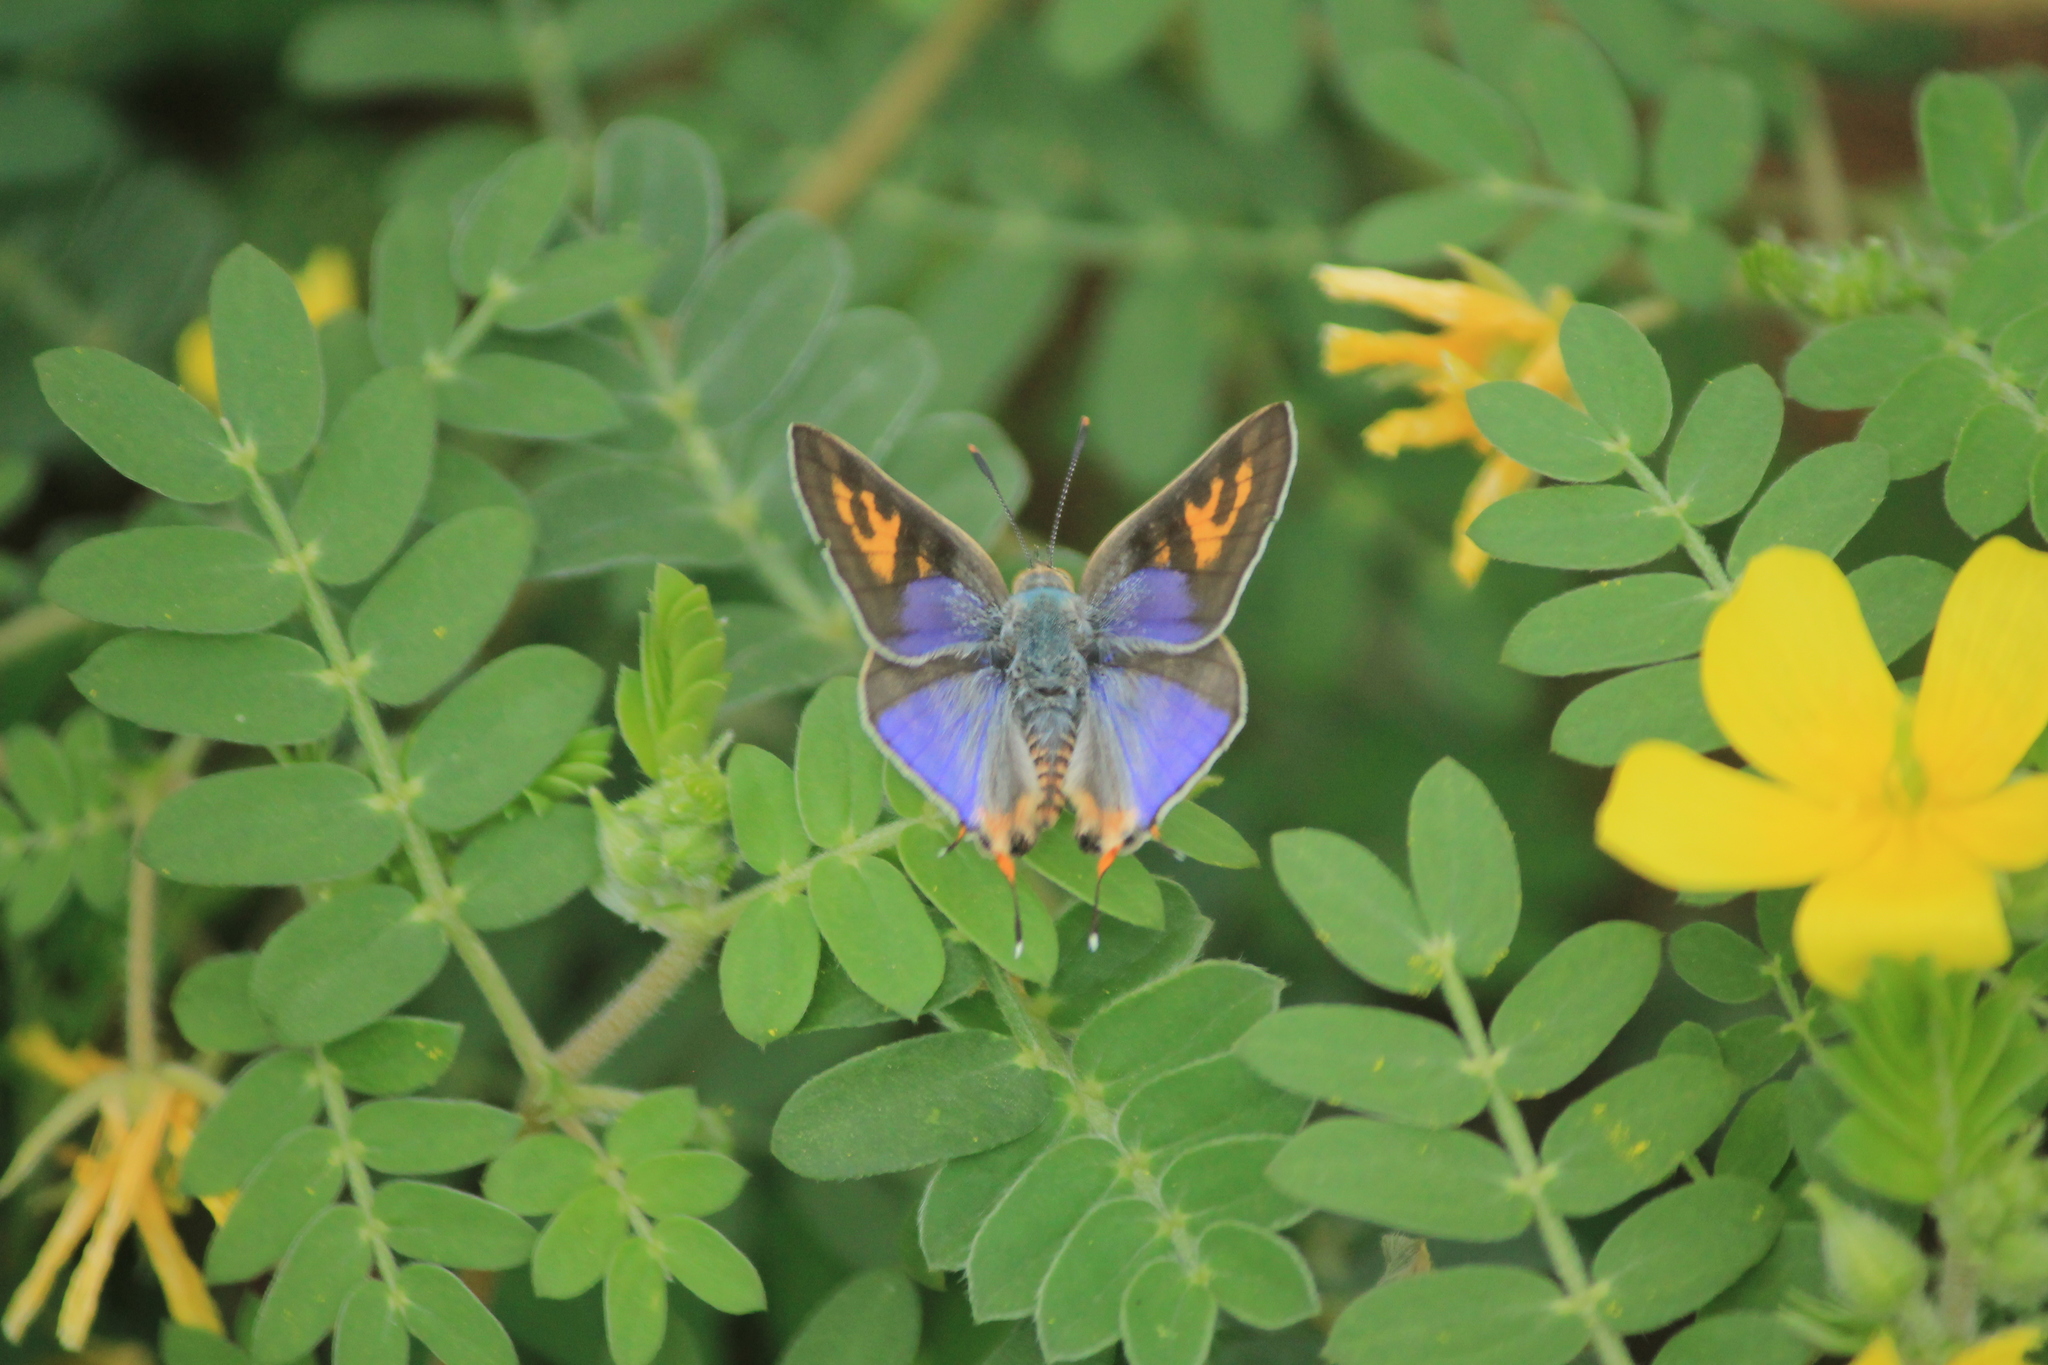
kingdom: Animalia
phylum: Arthropoda
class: Insecta
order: Lepidoptera
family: Lycaenidae
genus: Cigaritis
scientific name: Cigaritis
